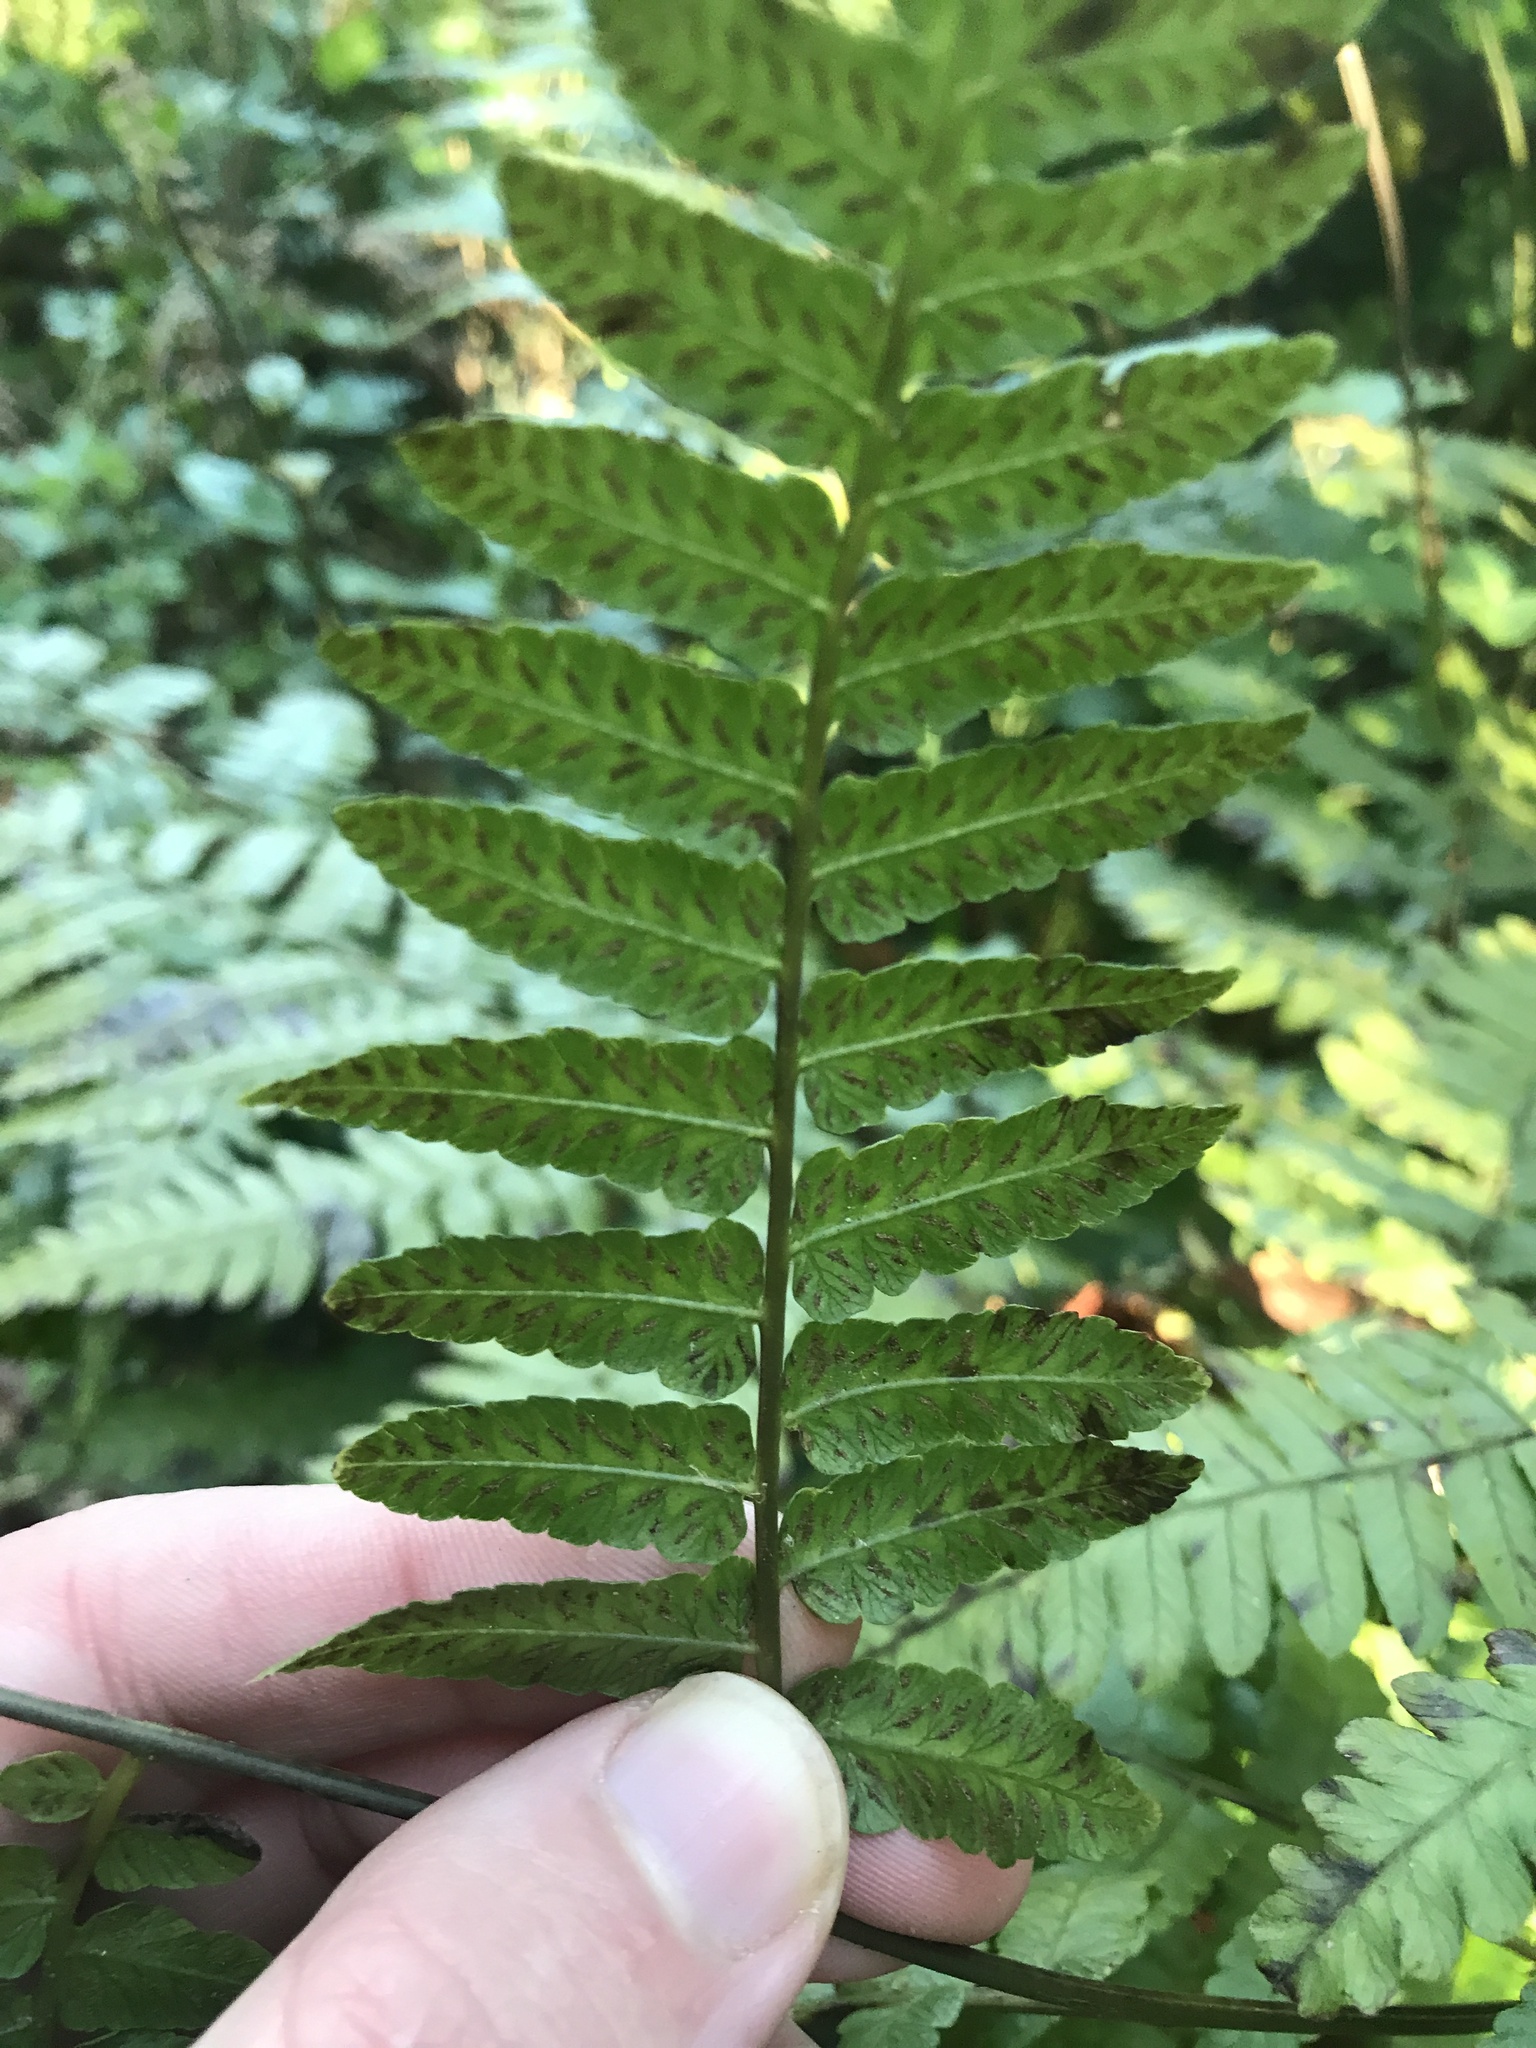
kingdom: Plantae
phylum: Tracheophyta
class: Polypodiopsida
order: Polypodiales
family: Athyriaceae
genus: Diplazium
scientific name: Diplazium virescens
